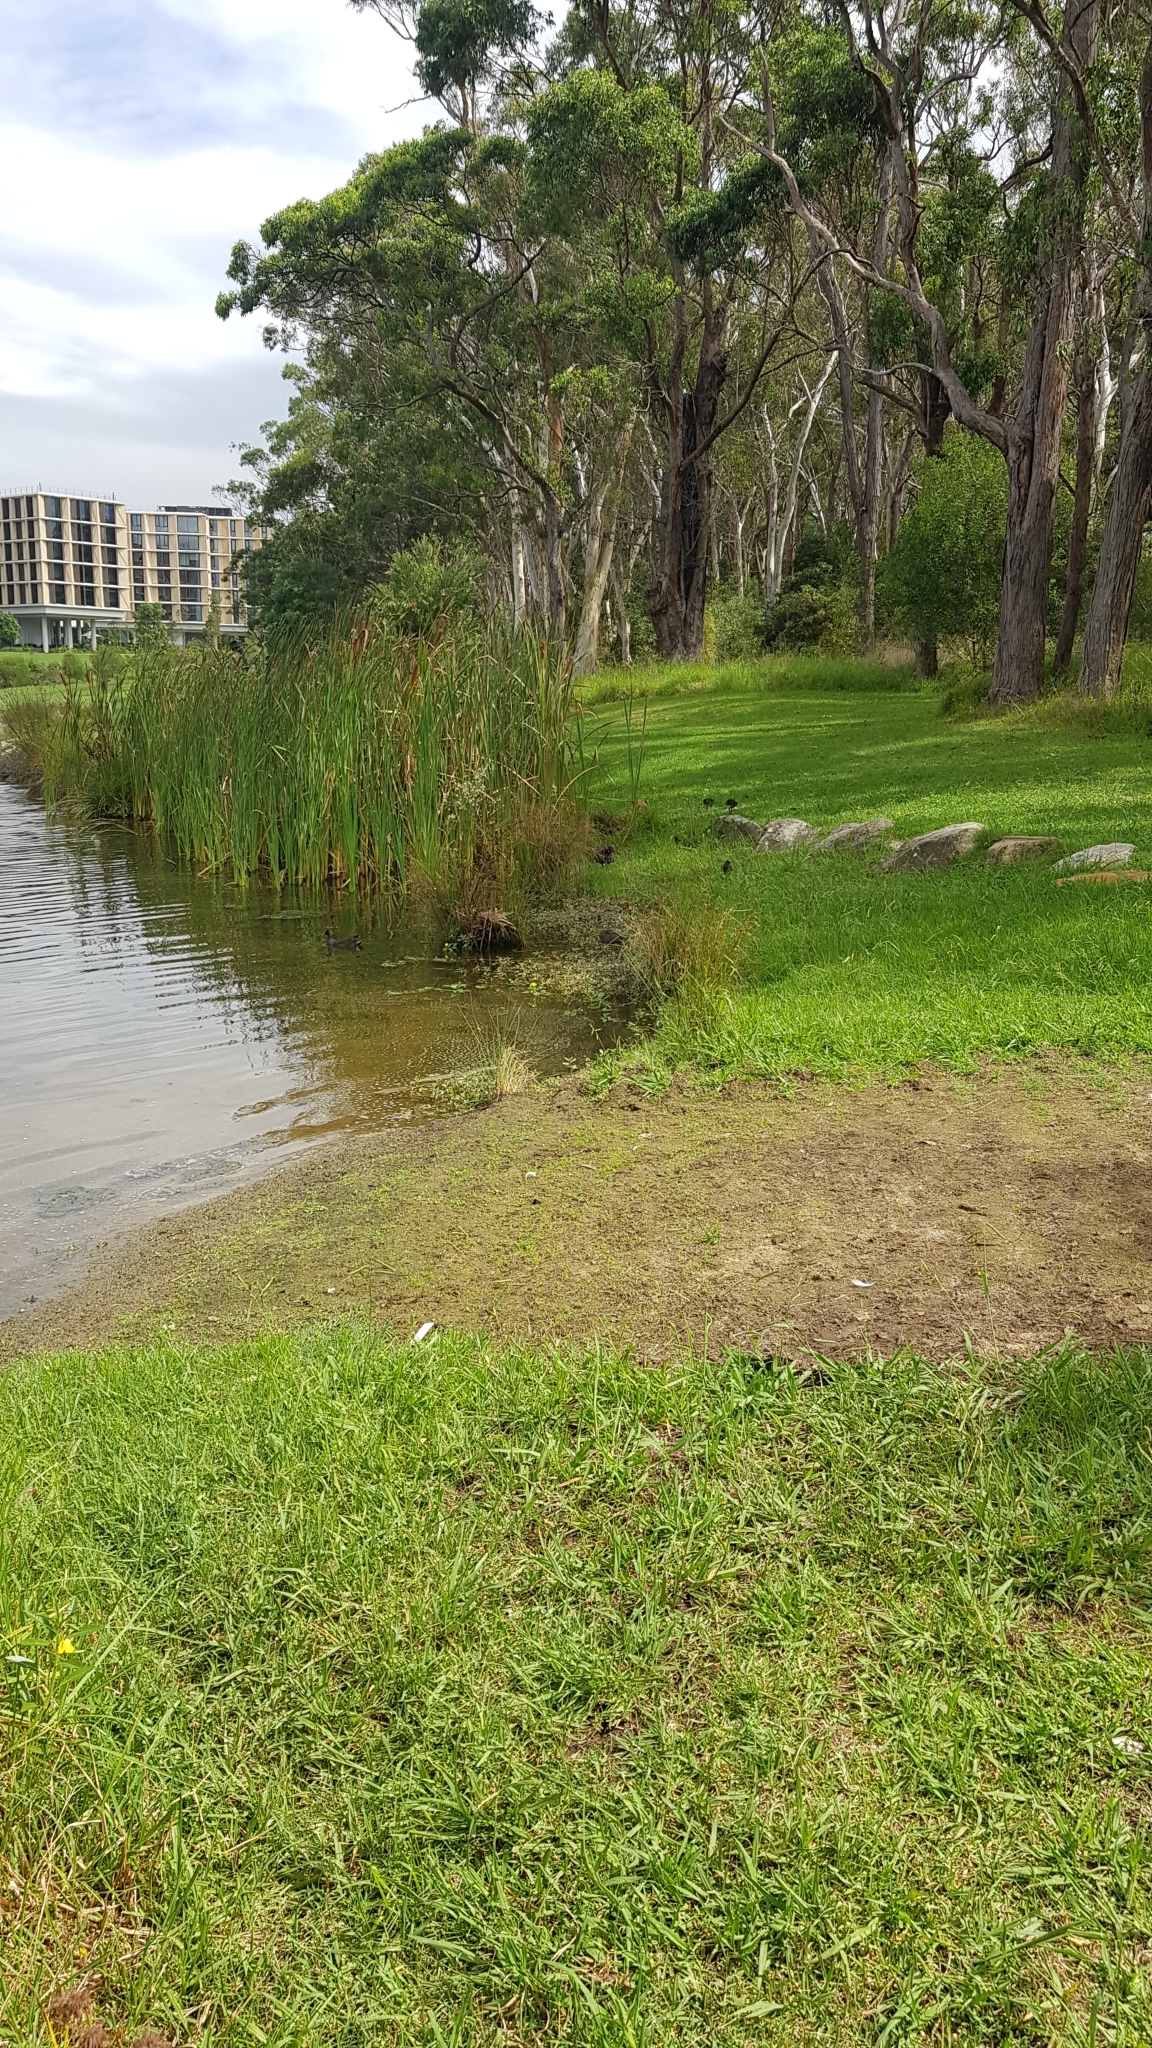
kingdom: Animalia
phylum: Chordata
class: Aves
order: Gruiformes
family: Rallidae
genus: Gallinula
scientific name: Gallinula tenebrosa
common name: Dusky moorhen
